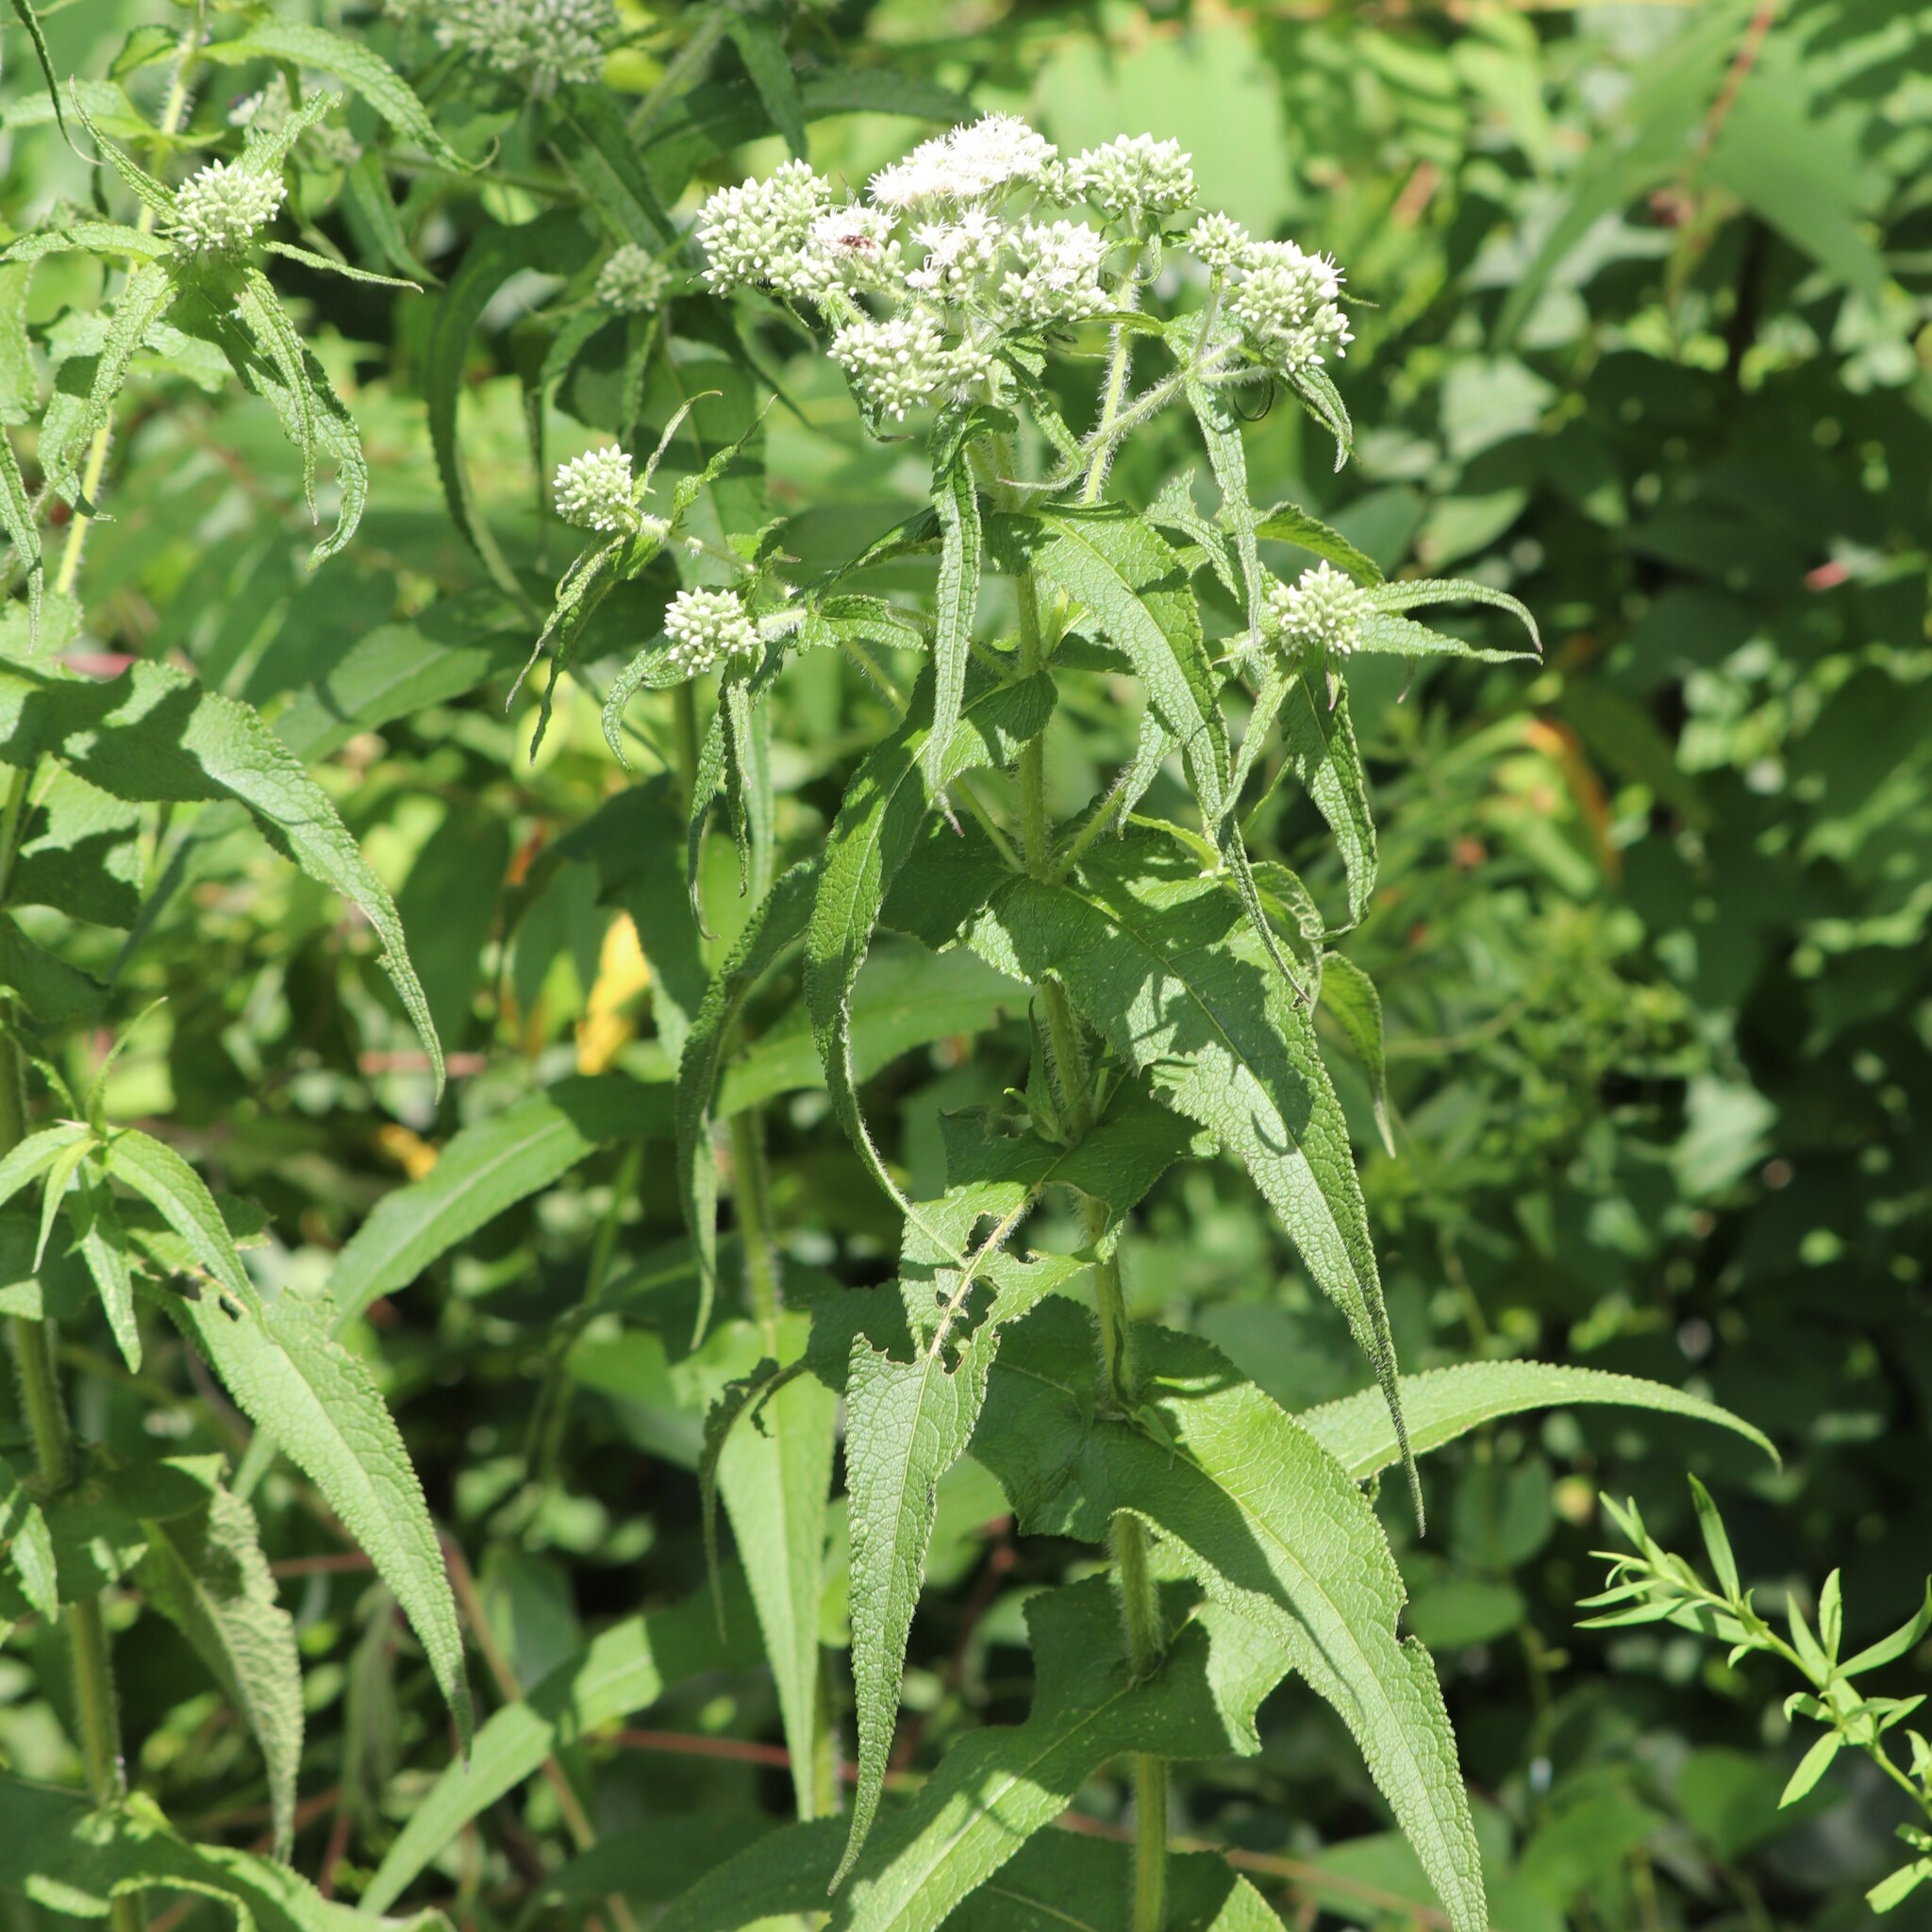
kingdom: Plantae
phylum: Tracheophyta
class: Magnoliopsida
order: Asterales
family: Asteraceae
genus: Eupatorium
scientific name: Eupatorium perfoliatum
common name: Boneset
